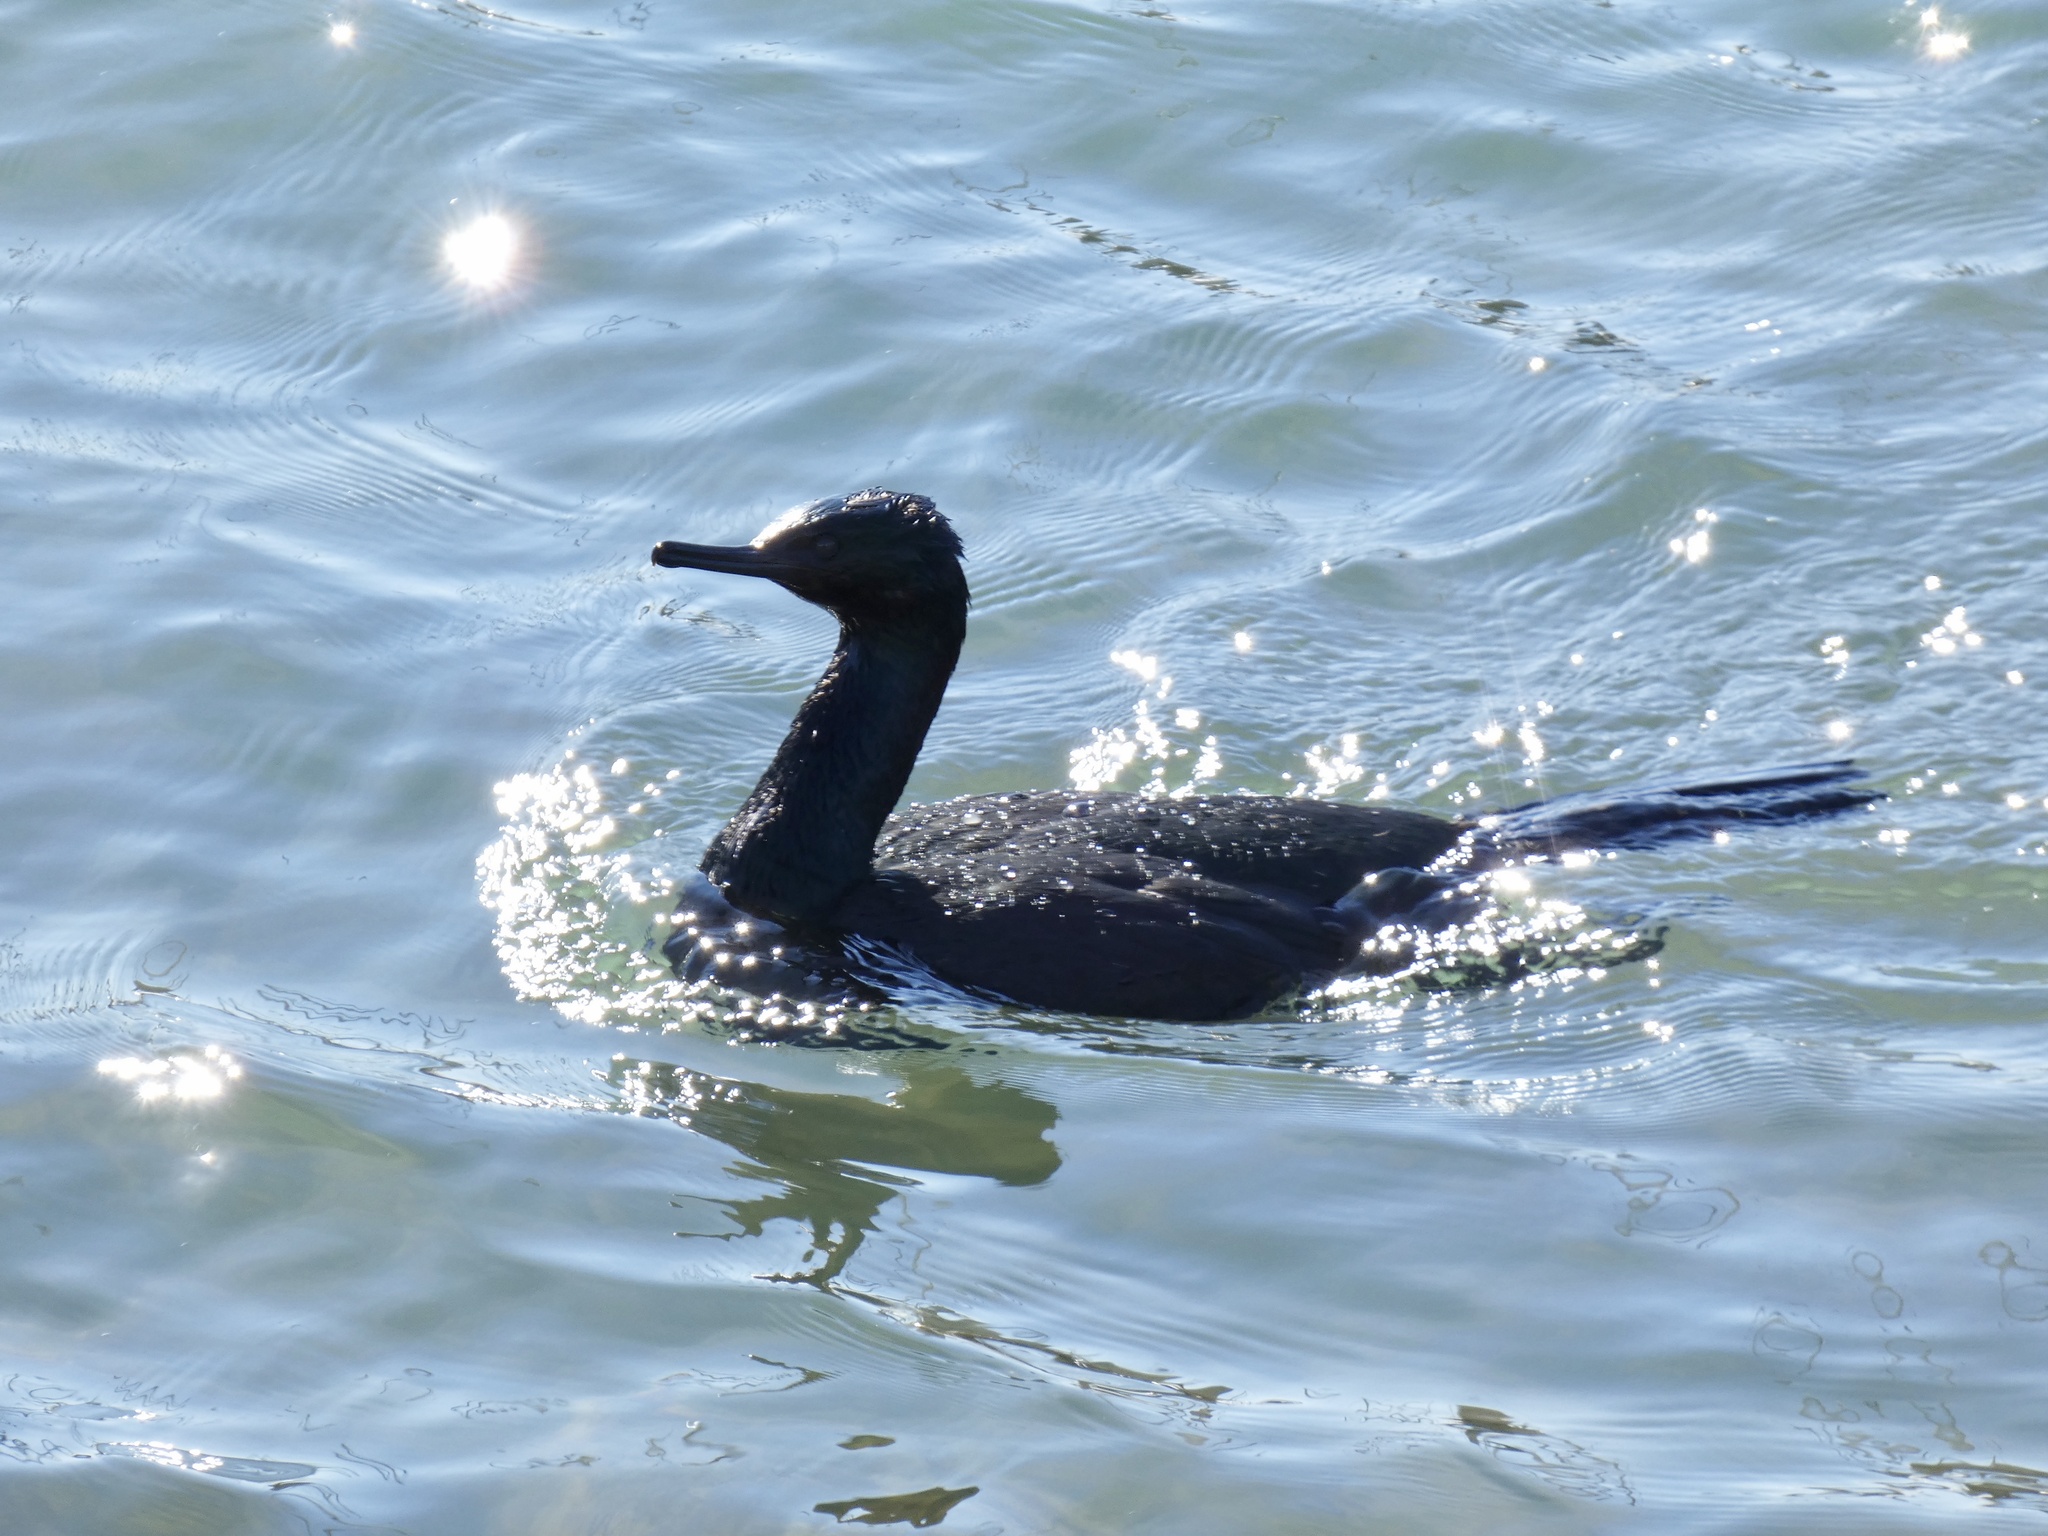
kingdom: Animalia
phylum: Chordata
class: Aves
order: Suliformes
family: Phalacrocoracidae
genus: Phalacrocorax
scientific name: Phalacrocorax pelagicus
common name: Pelagic cormorant
